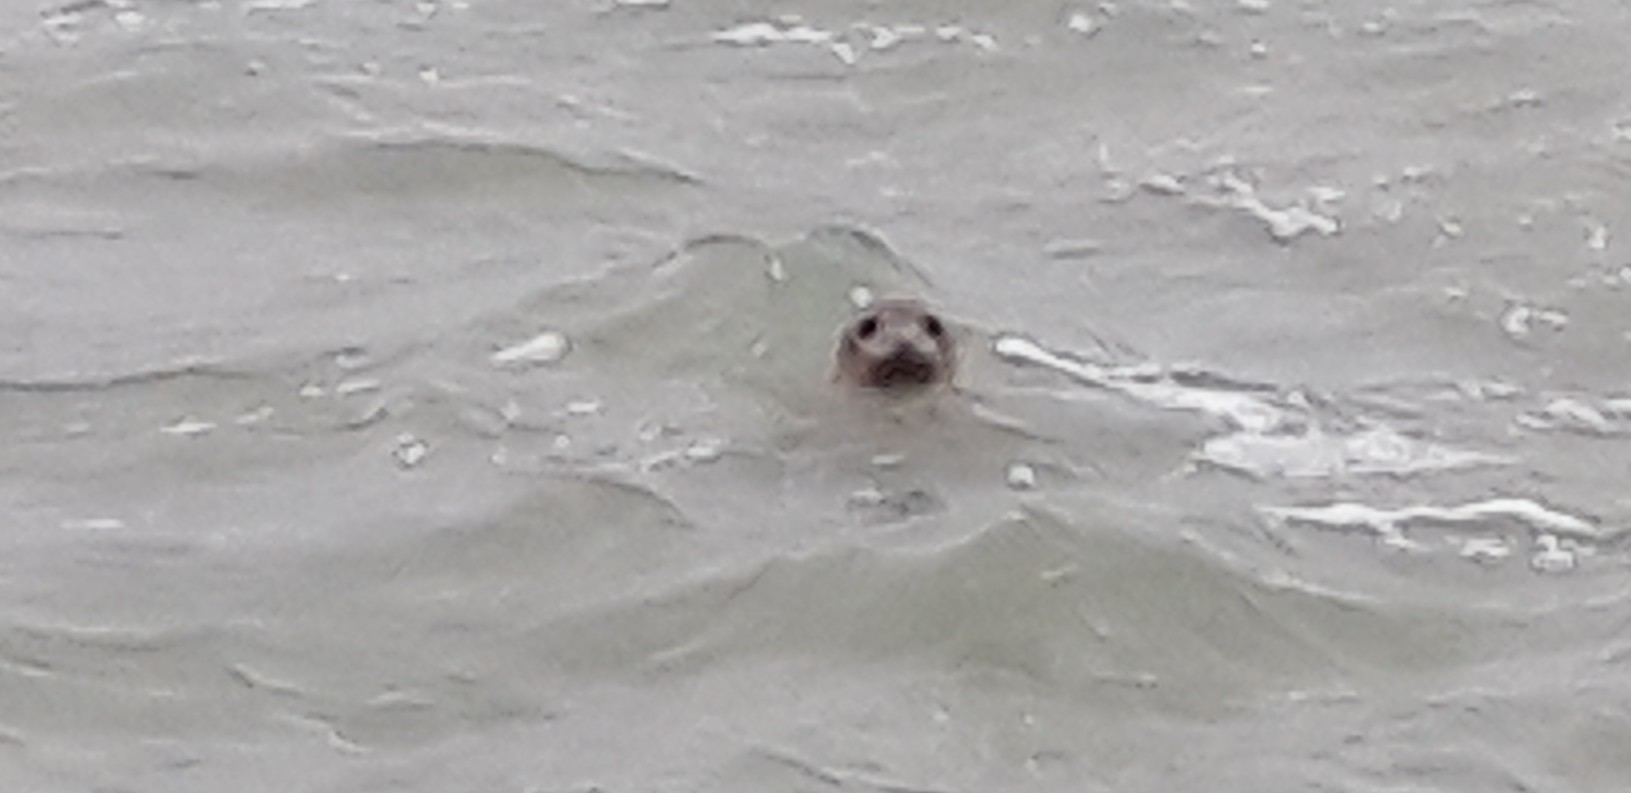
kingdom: Animalia
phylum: Chordata
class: Mammalia
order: Carnivora
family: Phocidae
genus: Phoca
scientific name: Phoca vitulina
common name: Harbor seal
